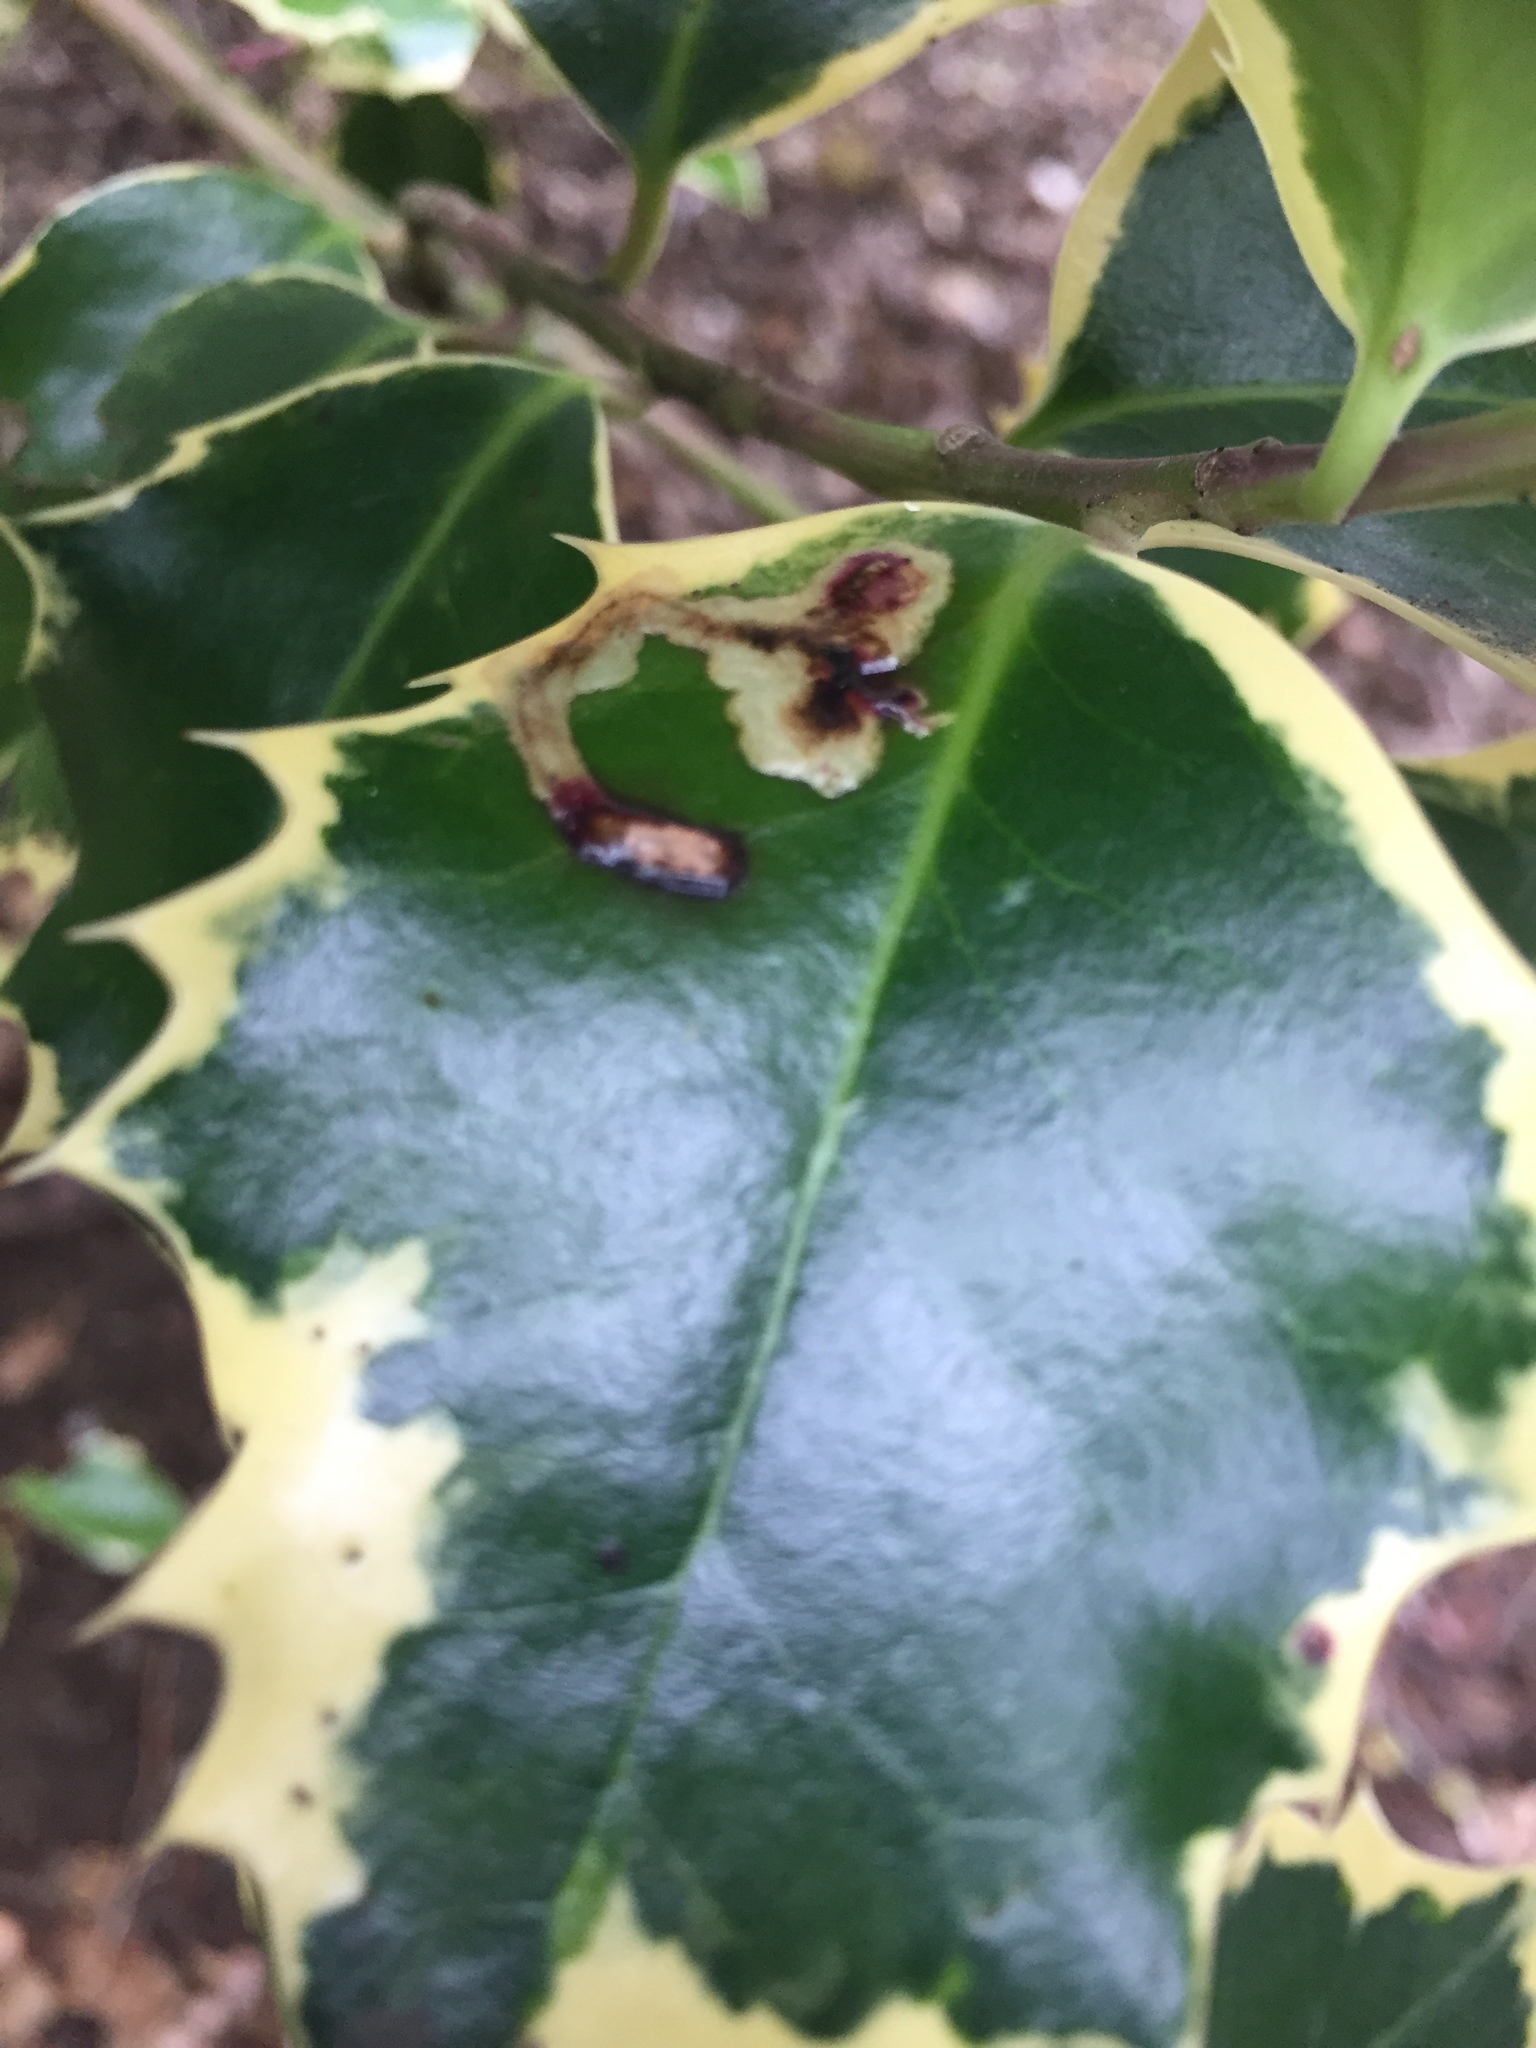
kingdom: Animalia
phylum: Arthropoda
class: Insecta
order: Diptera
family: Agromyzidae
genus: Phytomyza
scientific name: Phytomyza ilicis
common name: Holly leafminer
